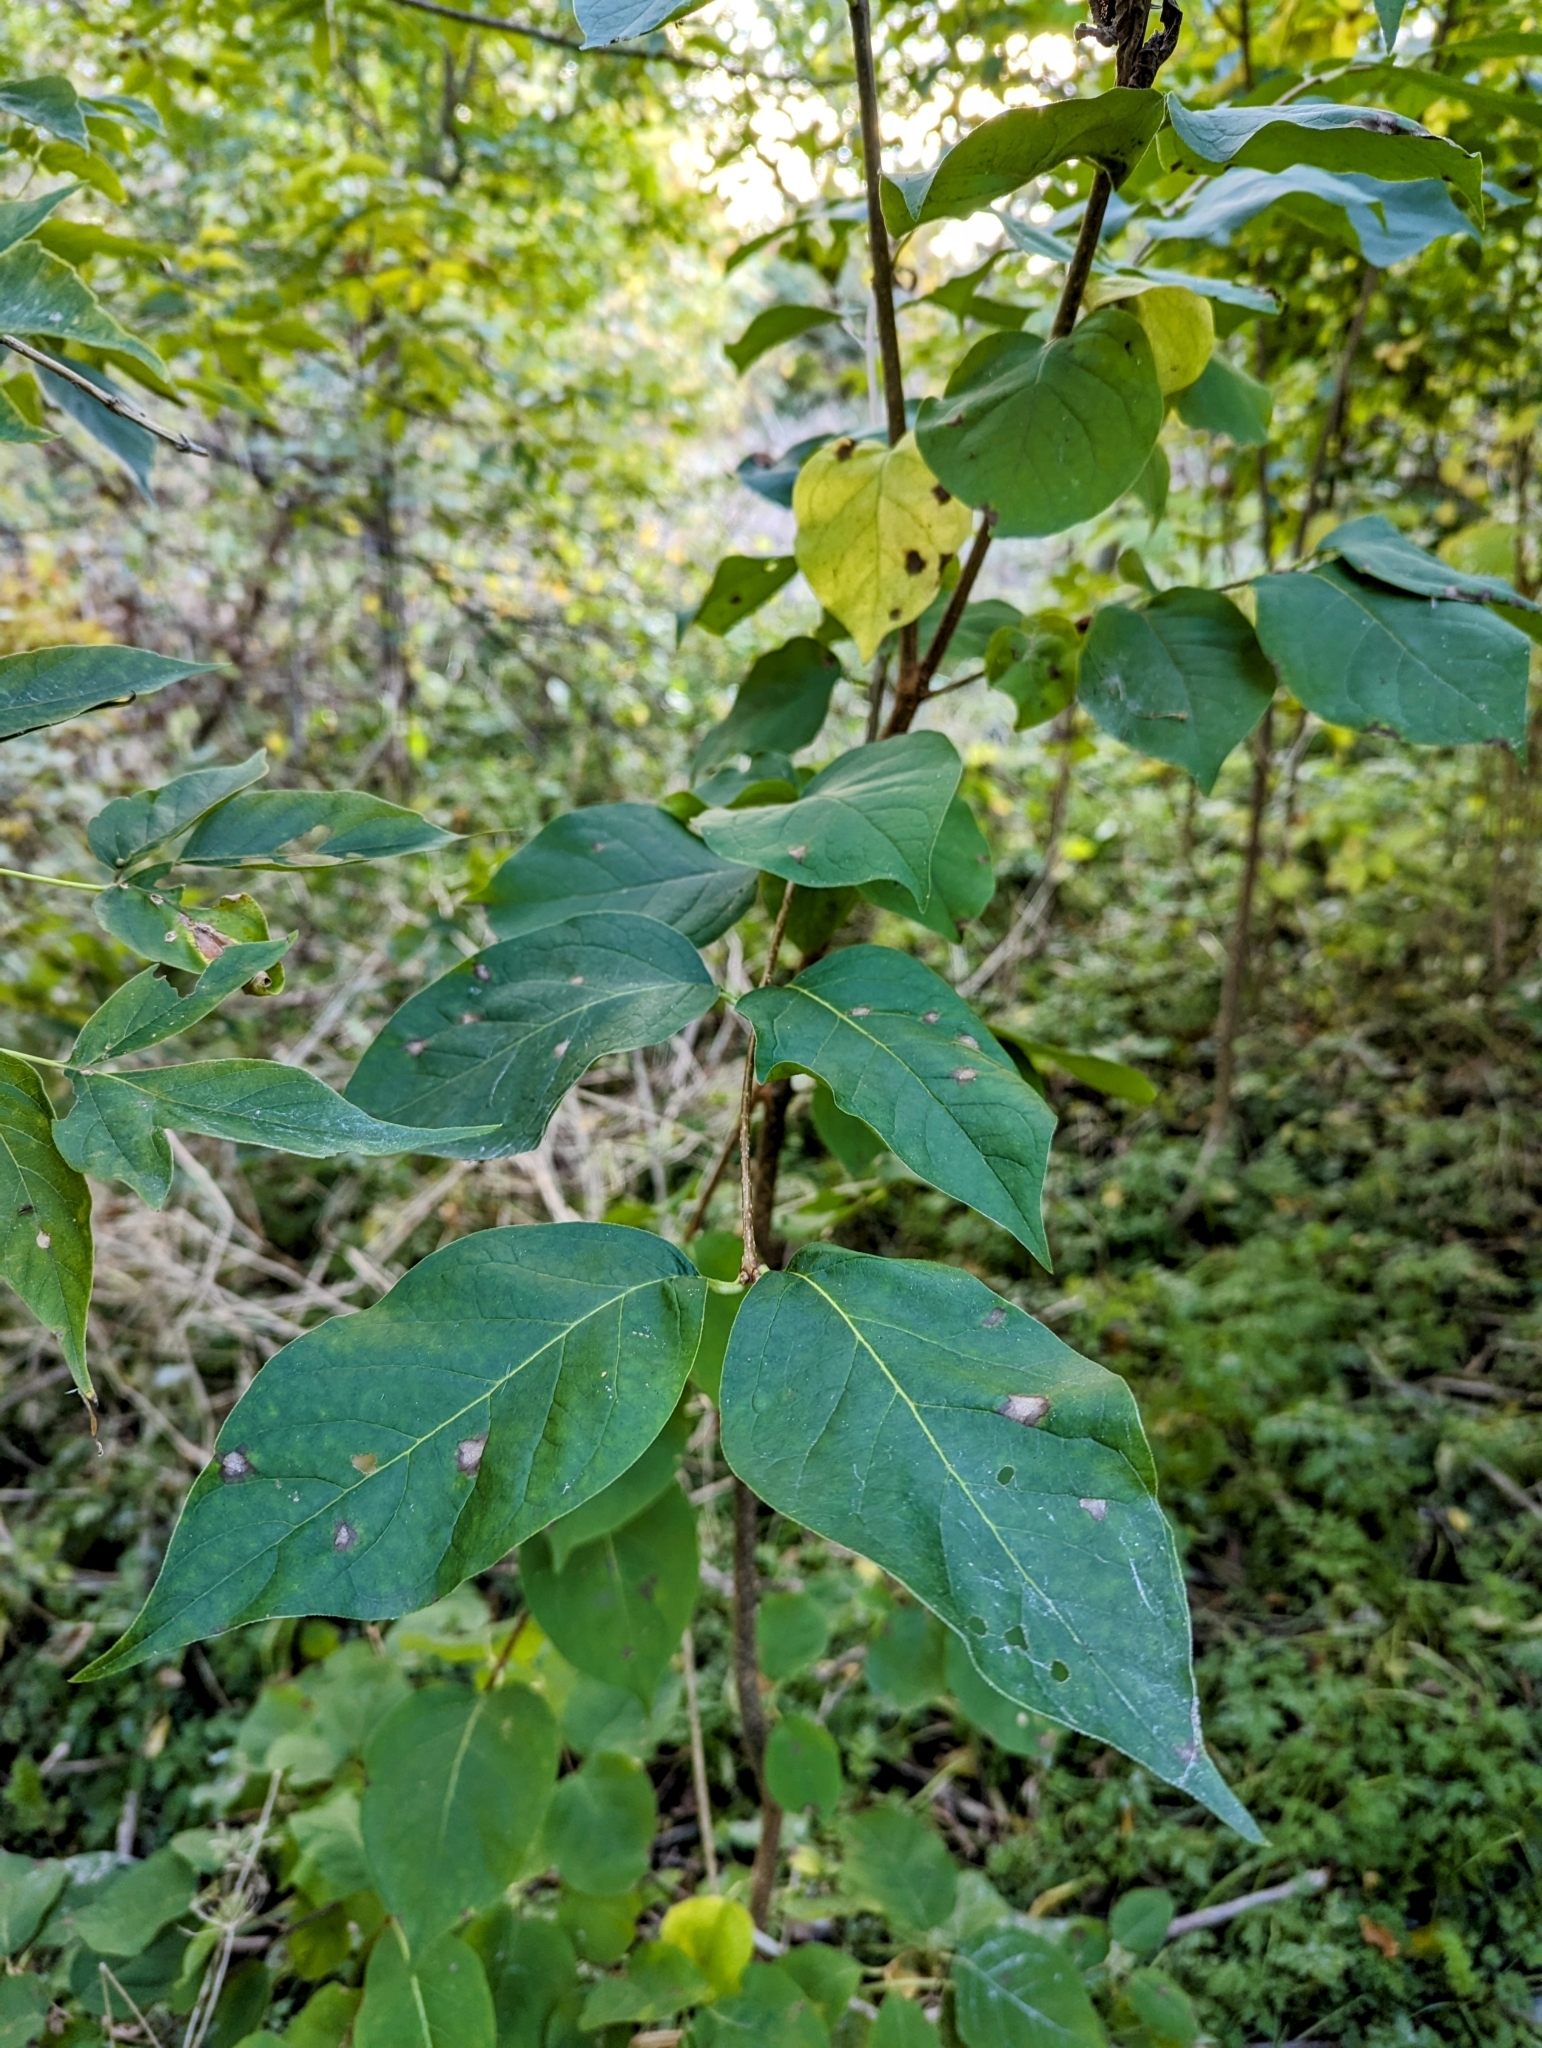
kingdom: Plantae
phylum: Tracheophyta
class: Magnoliopsida
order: Lamiales
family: Oleaceae
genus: Syringa
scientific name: Syringa reticulata
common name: Japanese tree lilac
